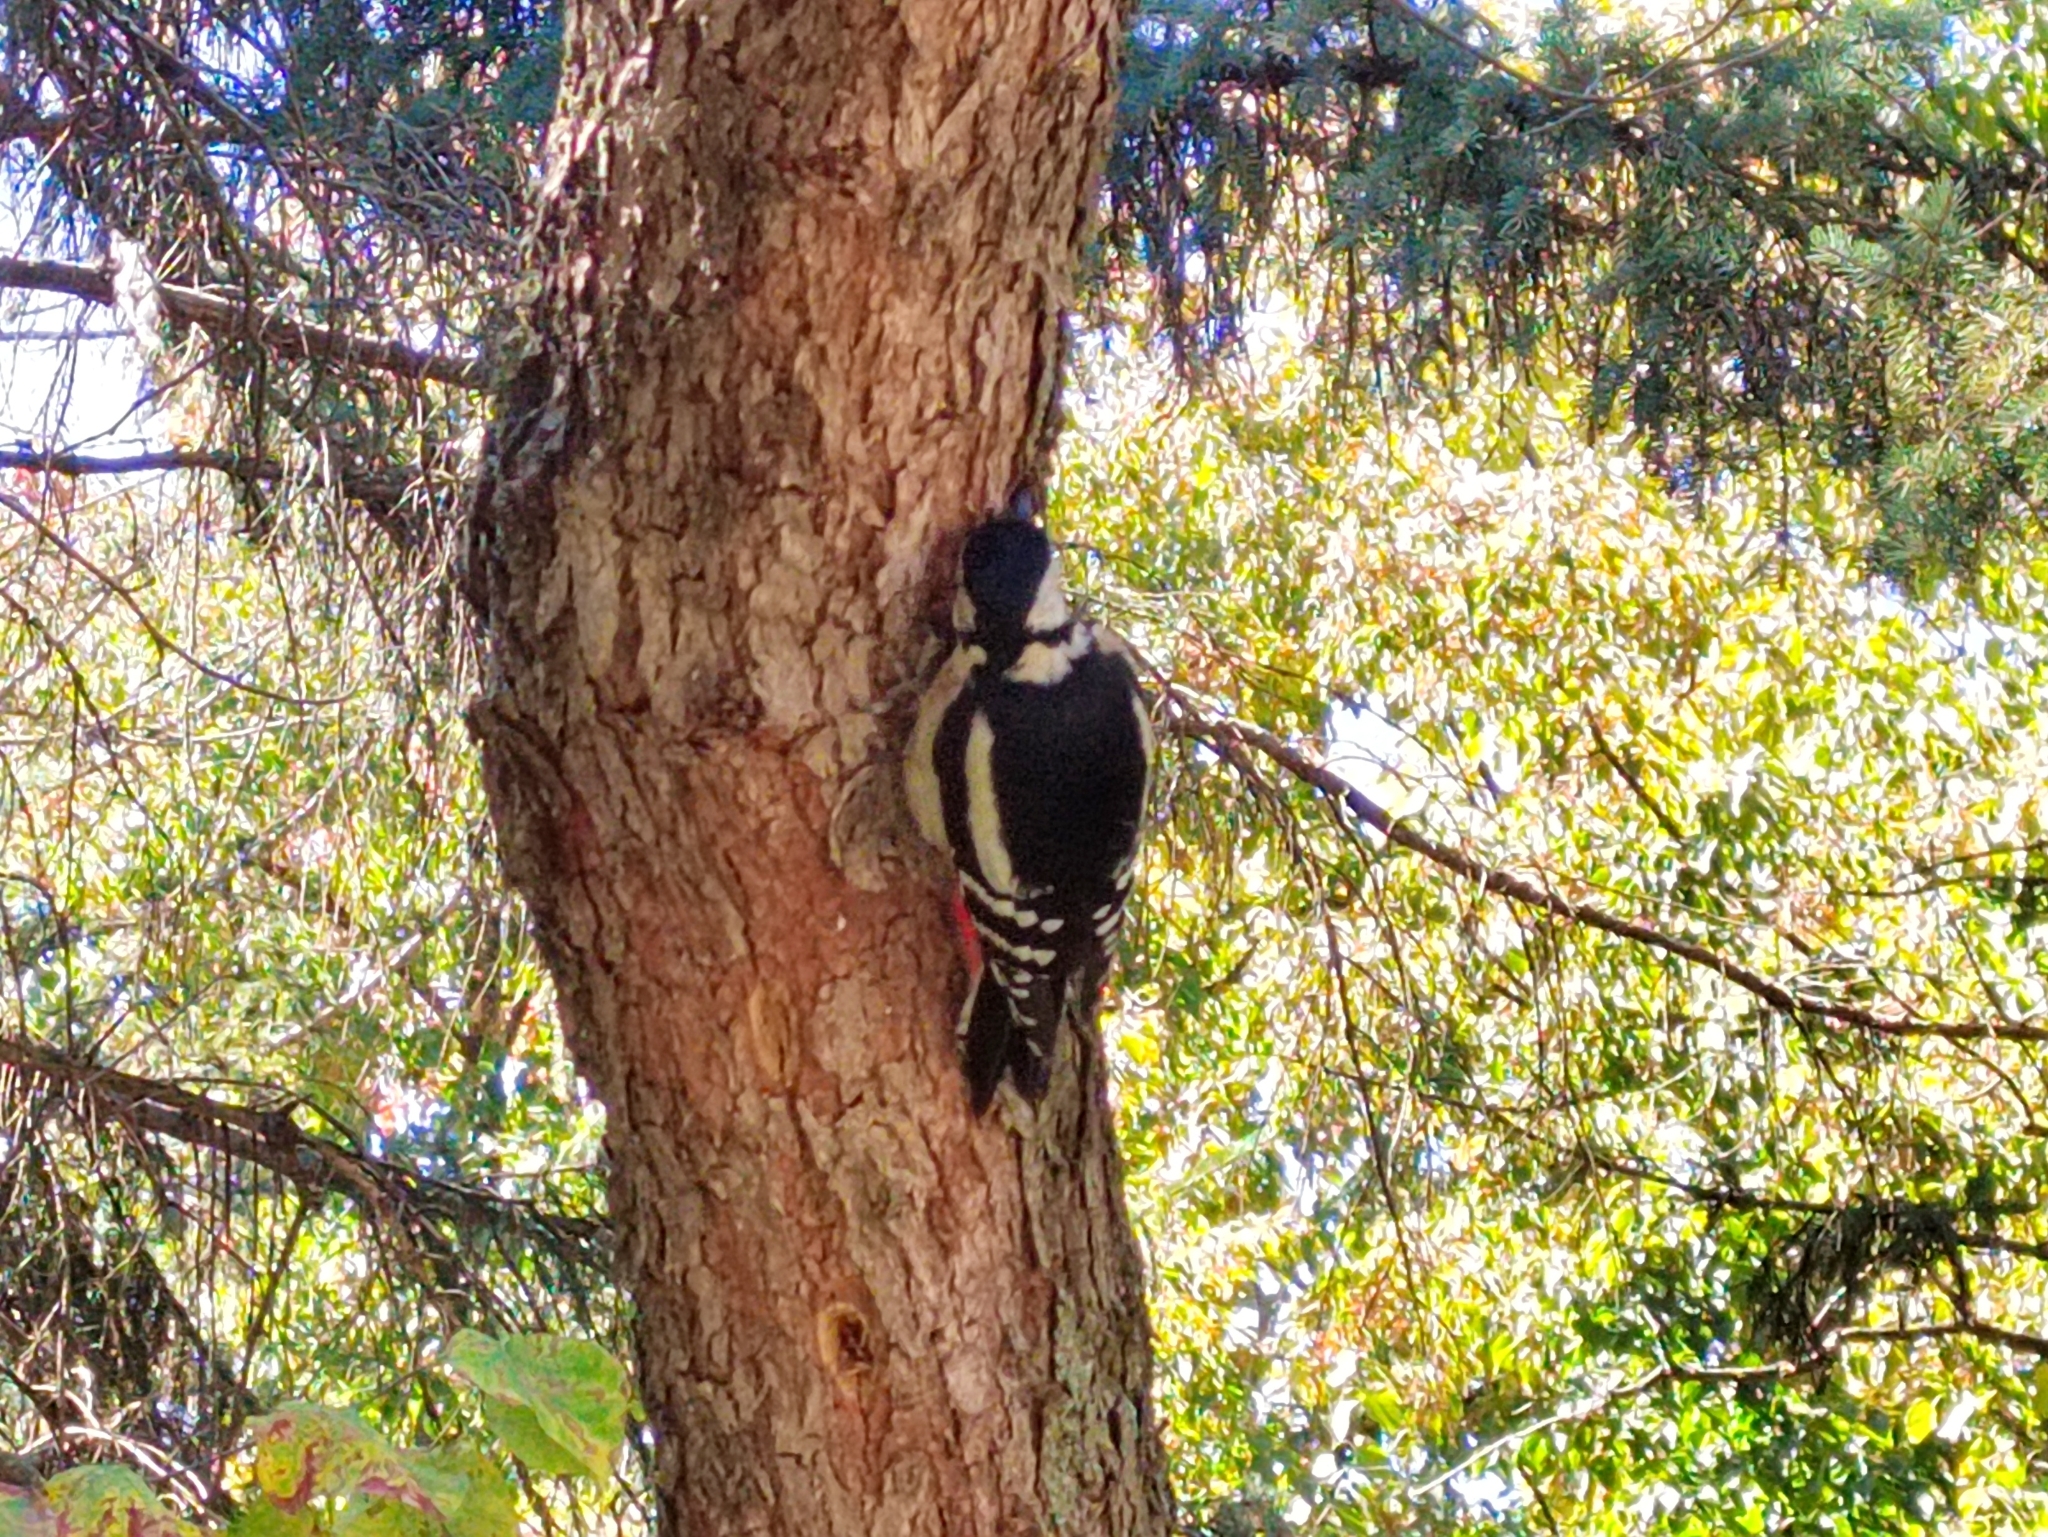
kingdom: Animalia
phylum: Chordata
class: Aves
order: Piciformes
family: Picidae
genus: Dendrocopos
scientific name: Dendrocopos major
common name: Great spotted woodpecker
